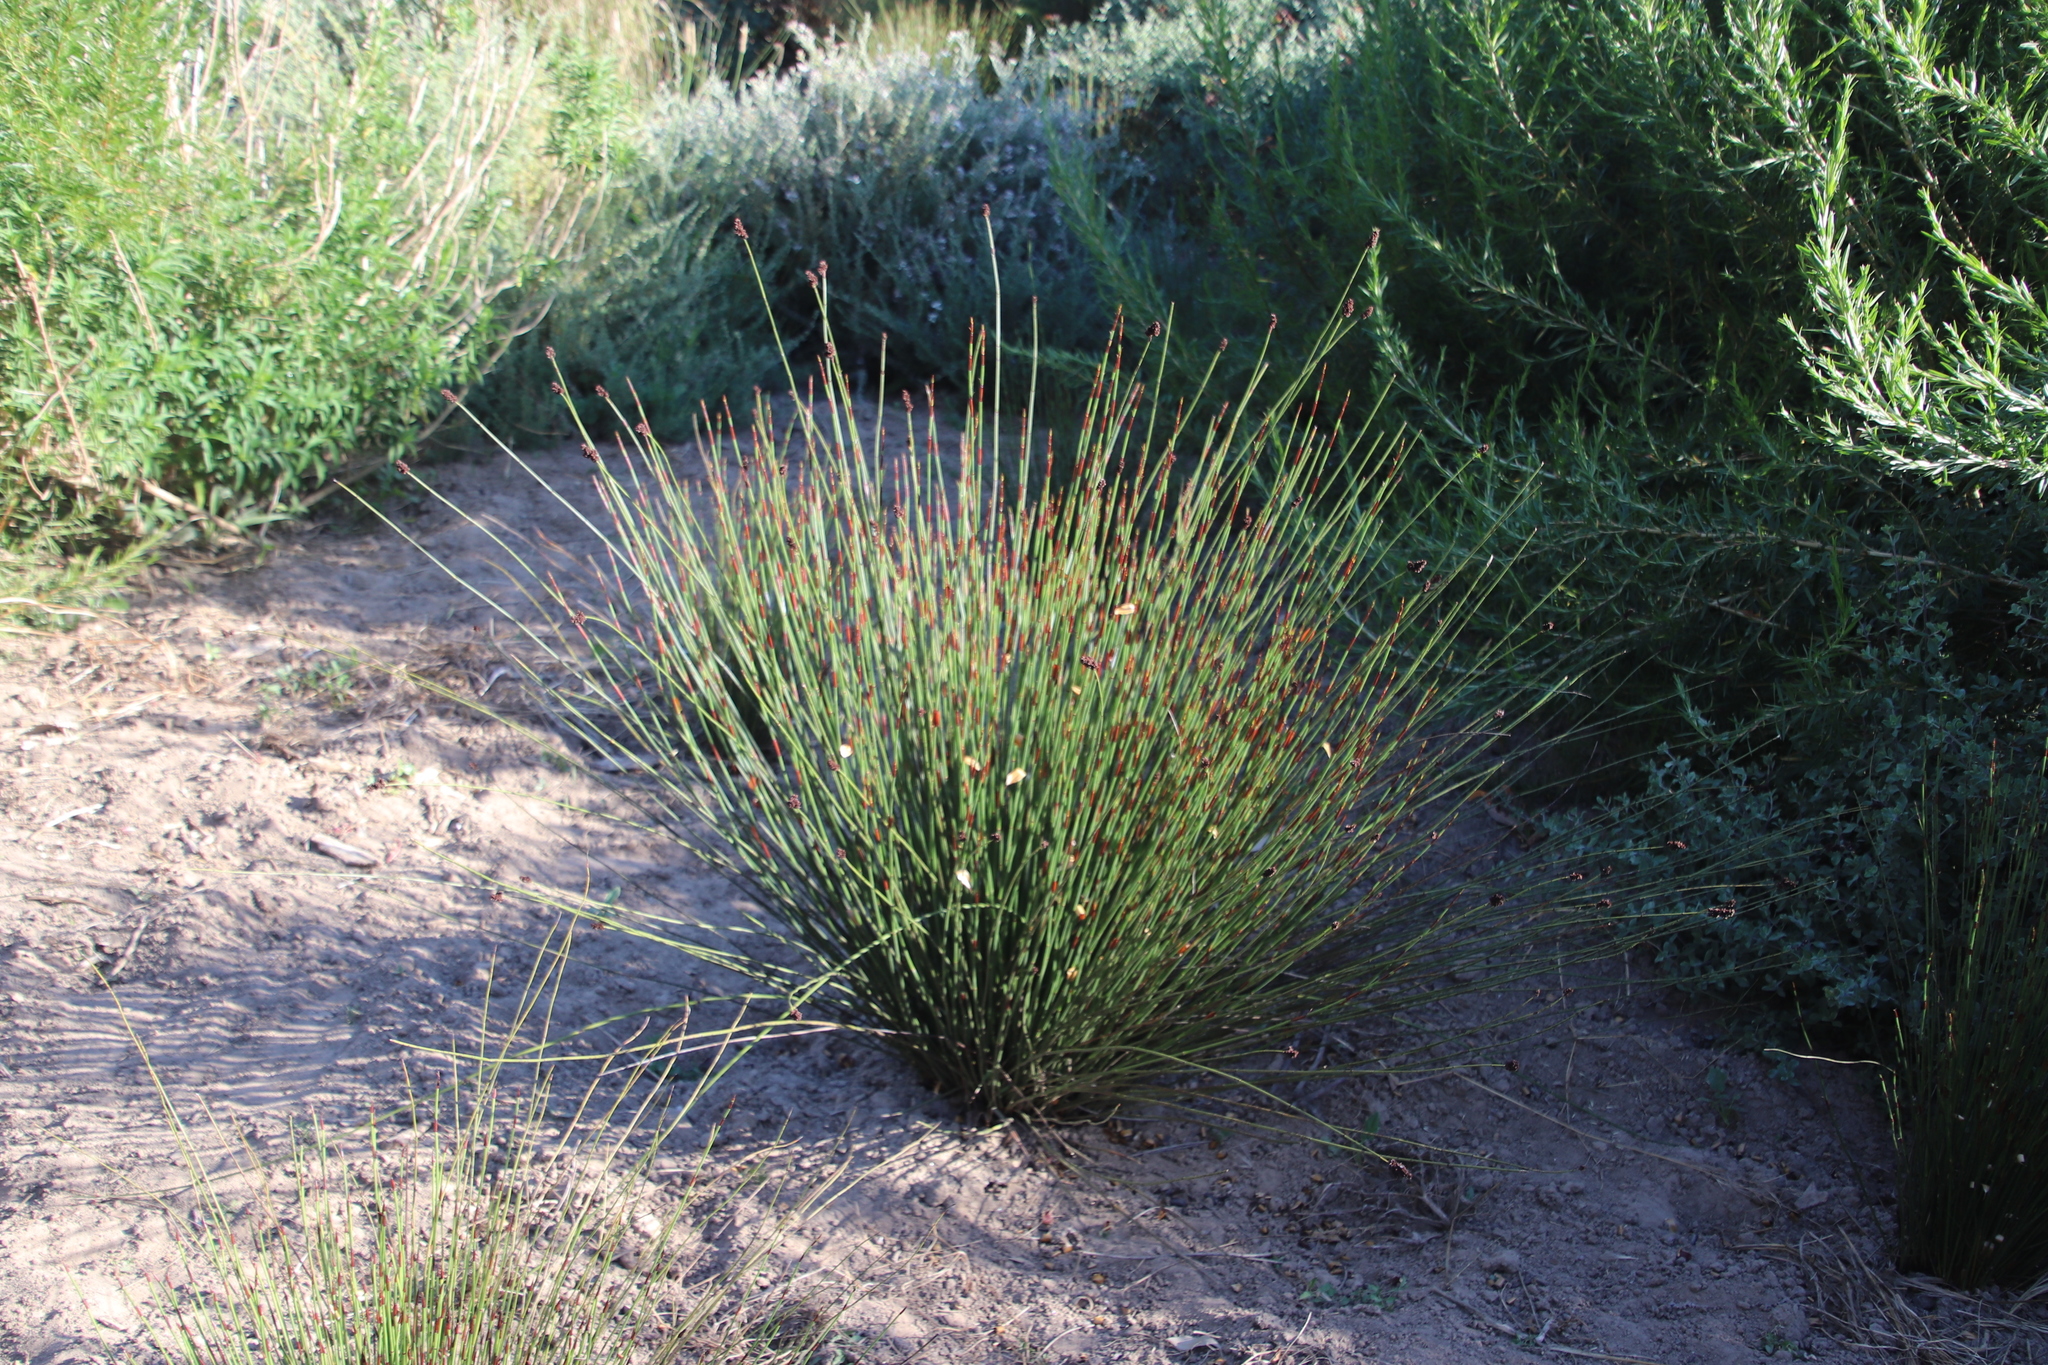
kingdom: Plantae
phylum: Tracheophyta
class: Liliopsida
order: Poales
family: Restionaceae
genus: Elegia
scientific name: Elegia tectorum
